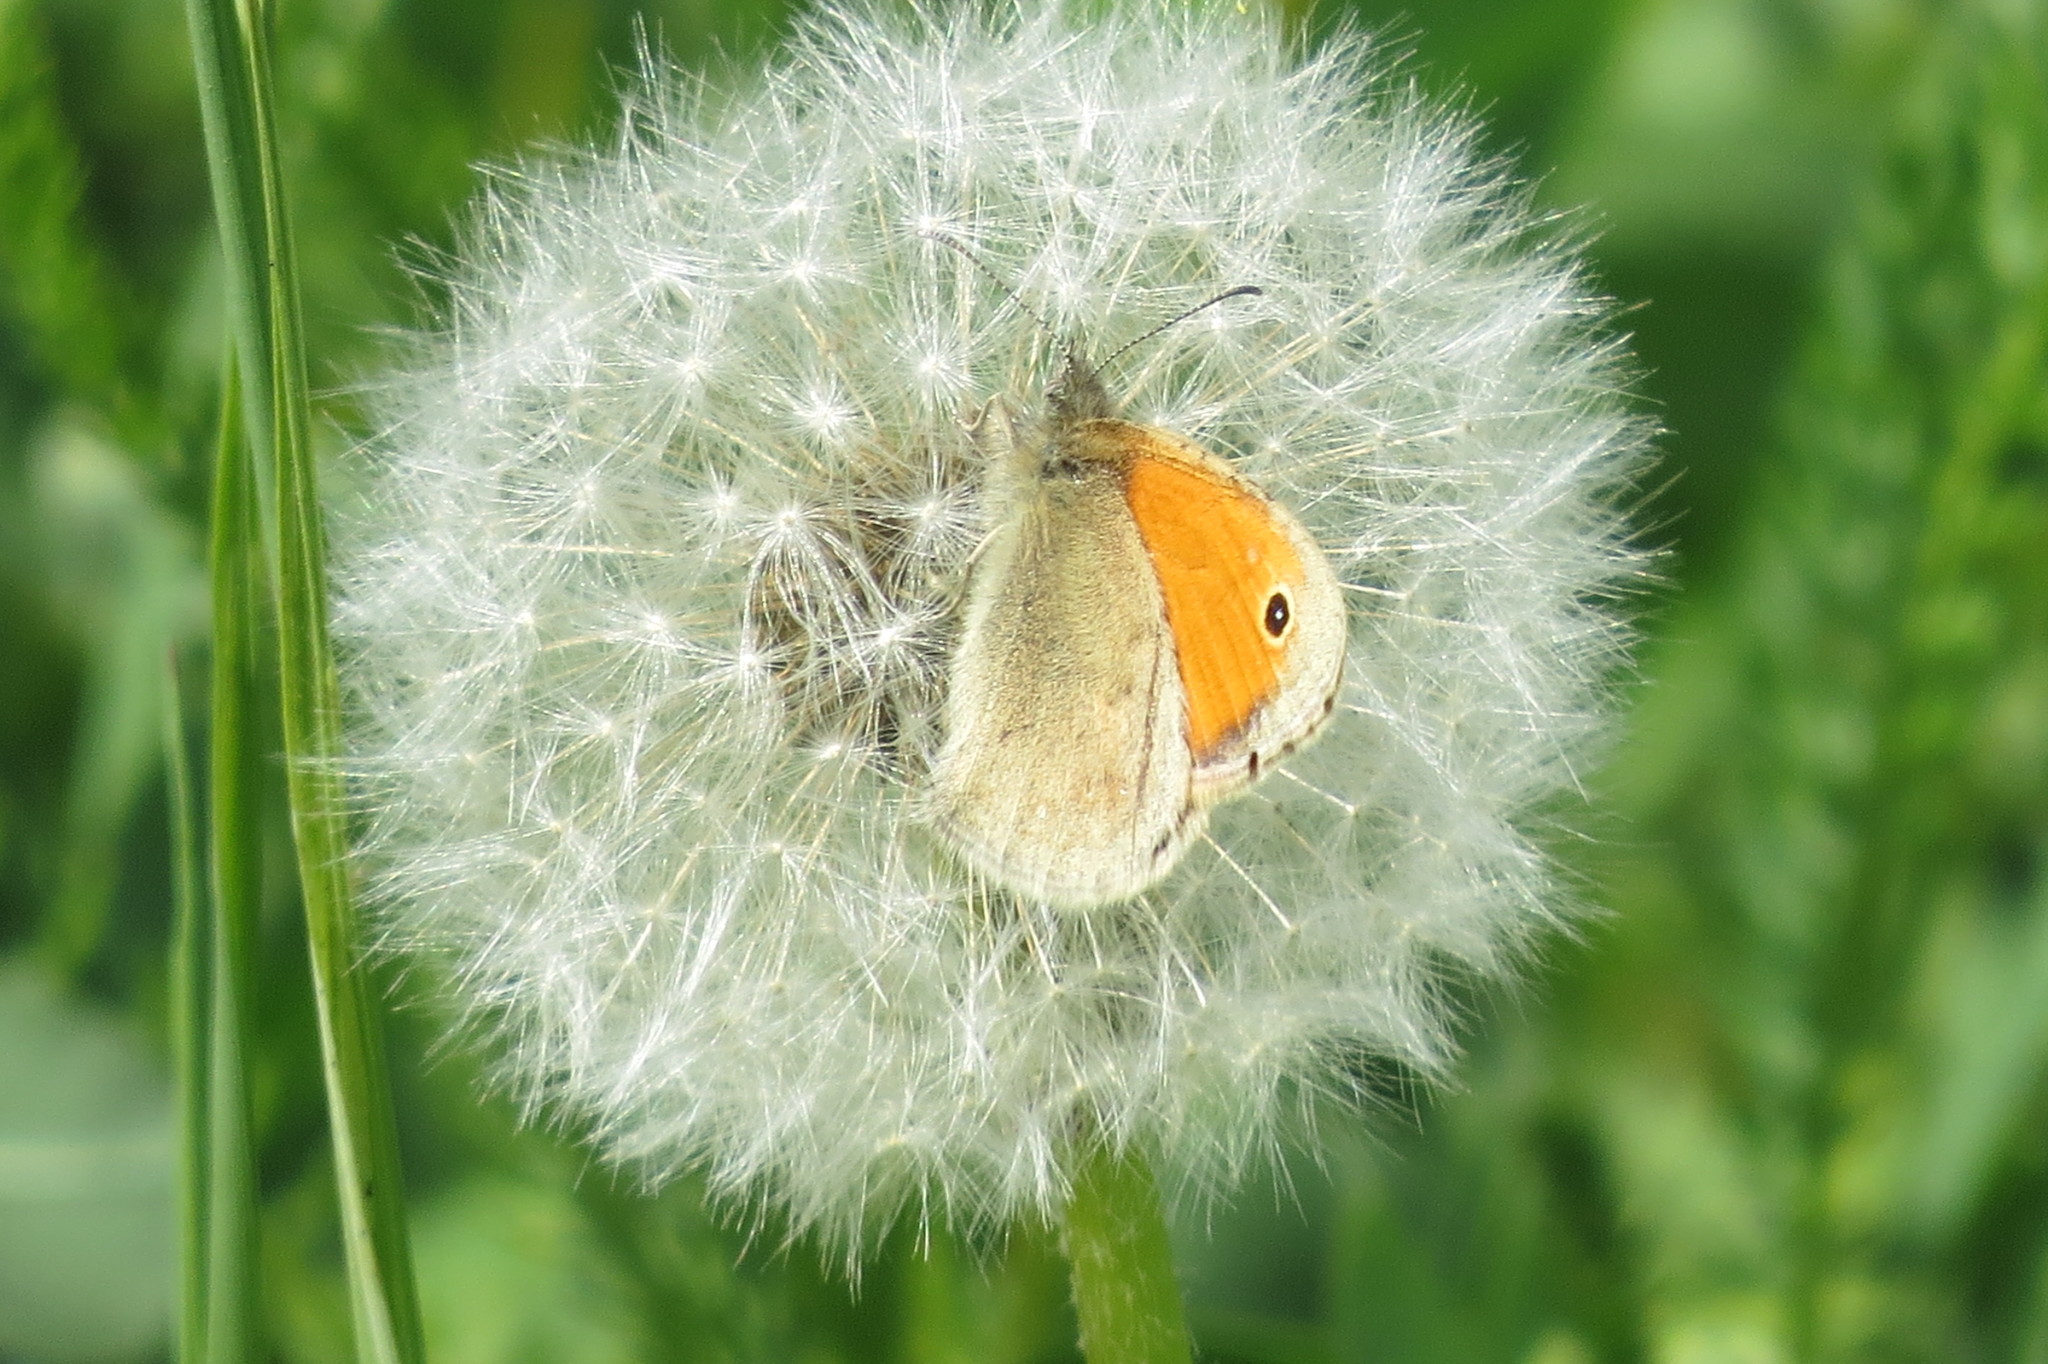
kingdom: Animalia
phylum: Arthropoda
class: Insecta
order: Lepidoptera
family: Nymphalidae
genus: Coenonympha
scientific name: Coenonympha pamphilus
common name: Small heath
